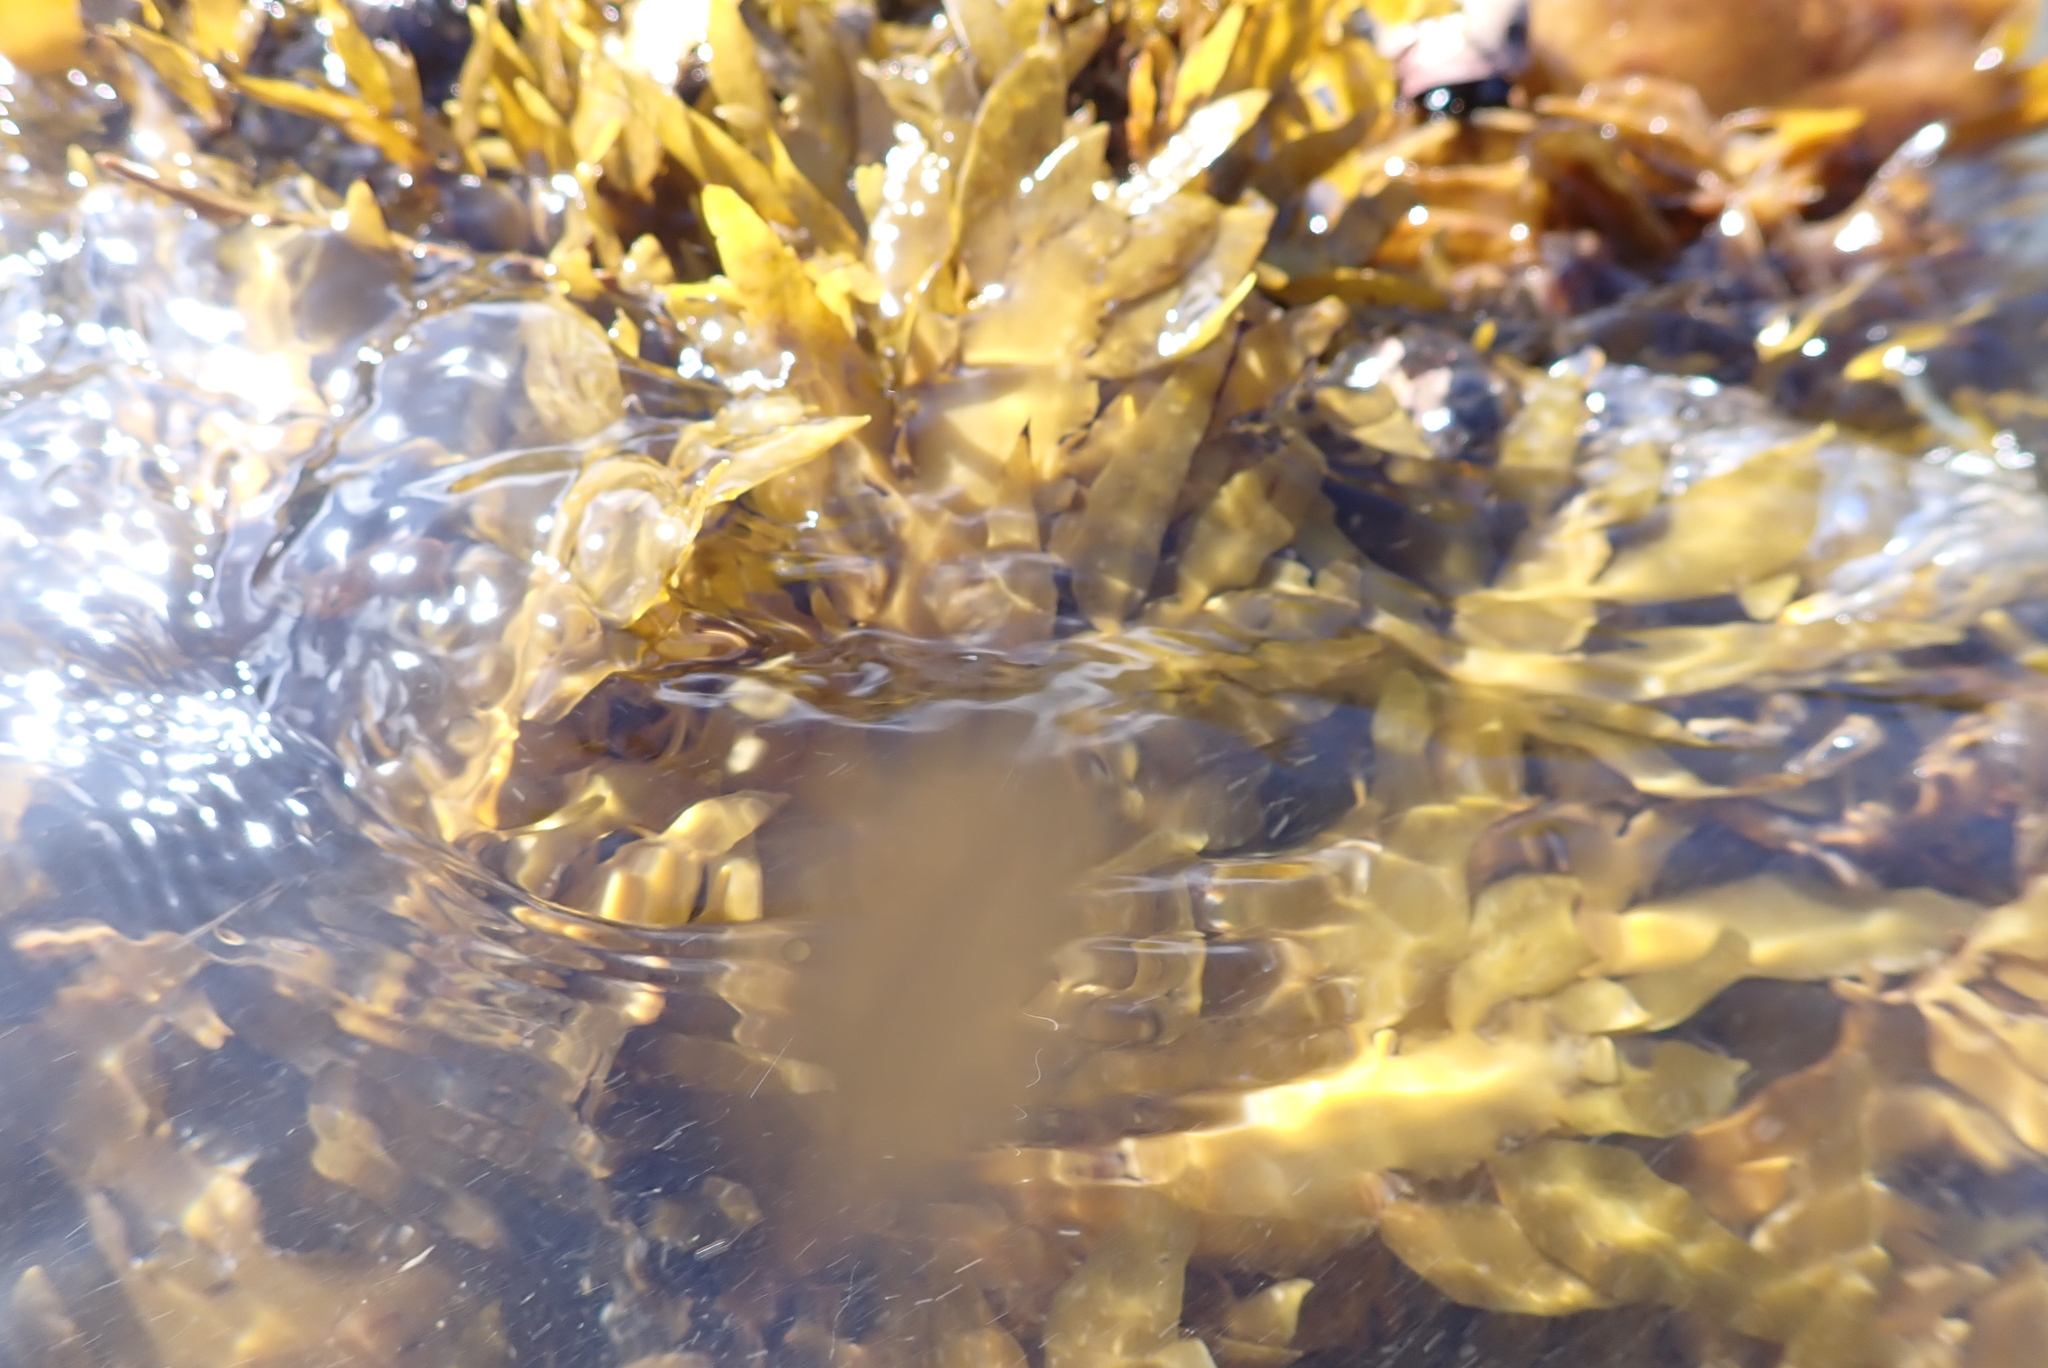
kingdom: Chromista
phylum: Ochrophyta
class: Phaeophyceae
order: Fucales
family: Sargassaceae
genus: Carpophyllum
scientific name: Carpophyllum maschalocarpum
